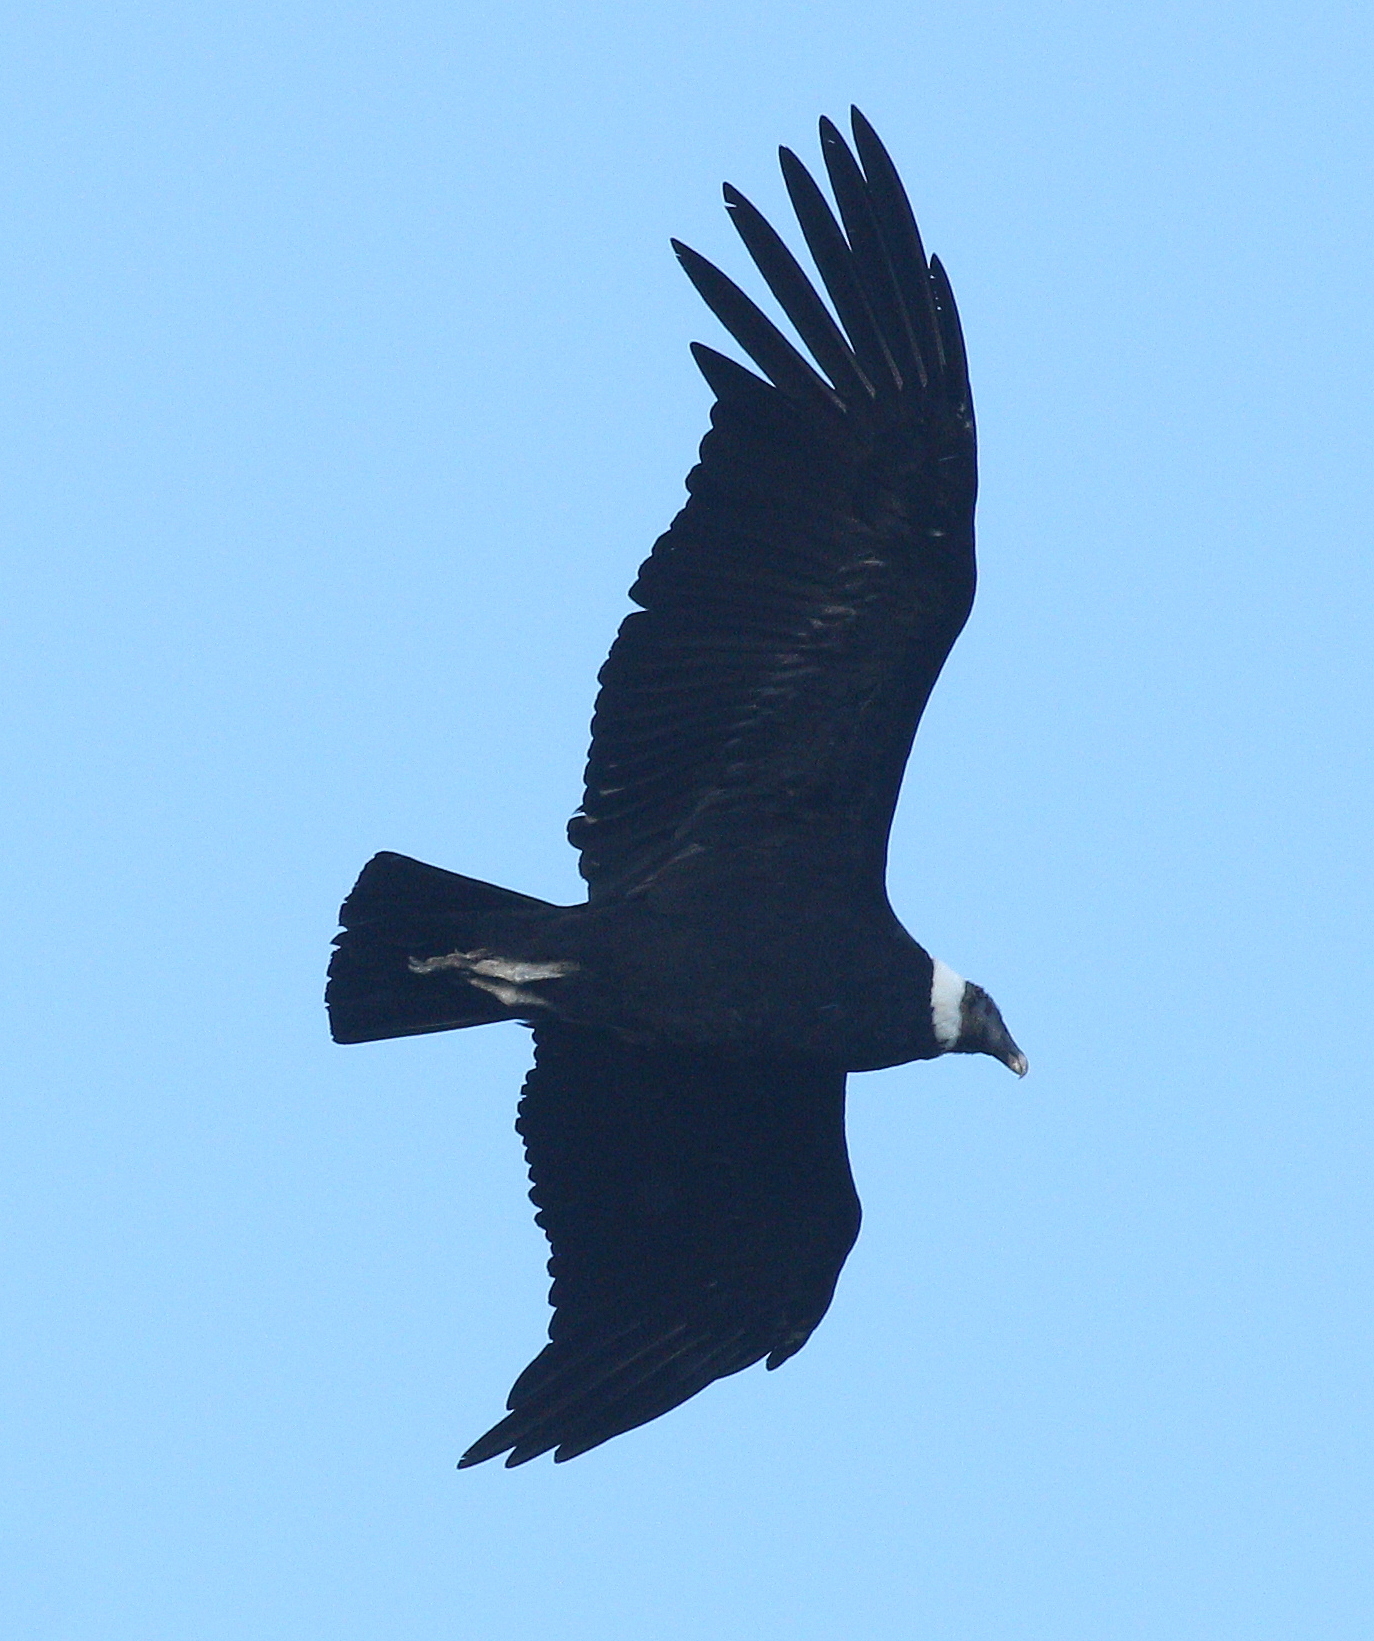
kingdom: Animalia
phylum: Chordata
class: Aves
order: Accipitriformes
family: Cathartidae
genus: Vultur
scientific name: Vultur gryphus
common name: Andean condor
